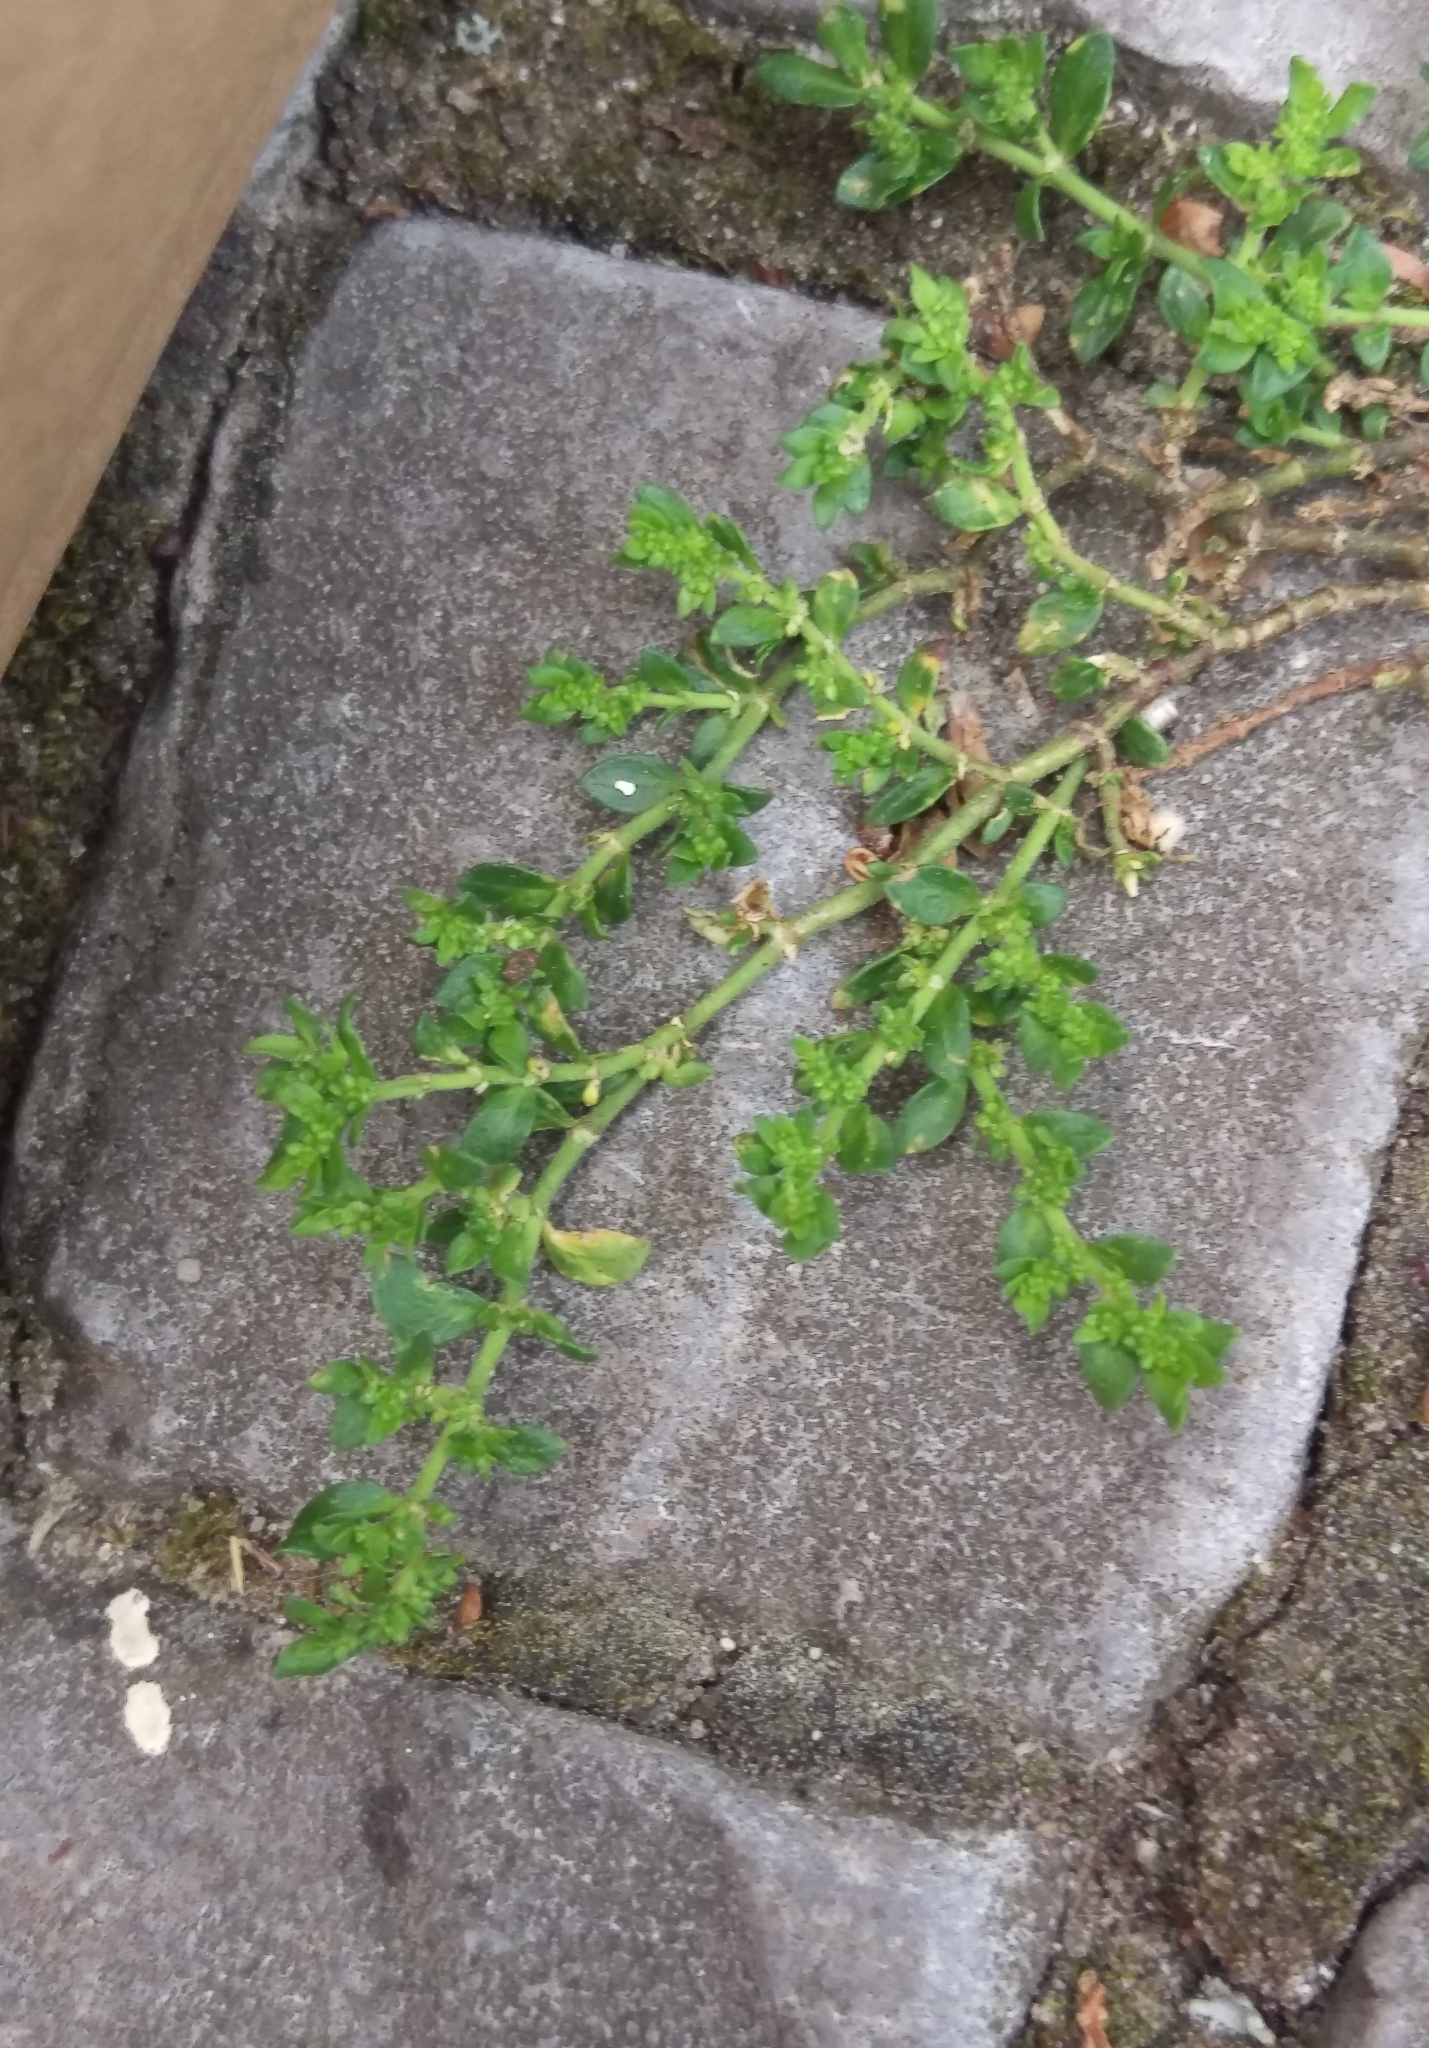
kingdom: Plantae
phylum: Tracheophyta
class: Magnoliopsida
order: Caryophyllales
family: Caryophyllaceae
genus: Herniaria
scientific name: Herniaria glabra
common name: Smooth rupturewort
